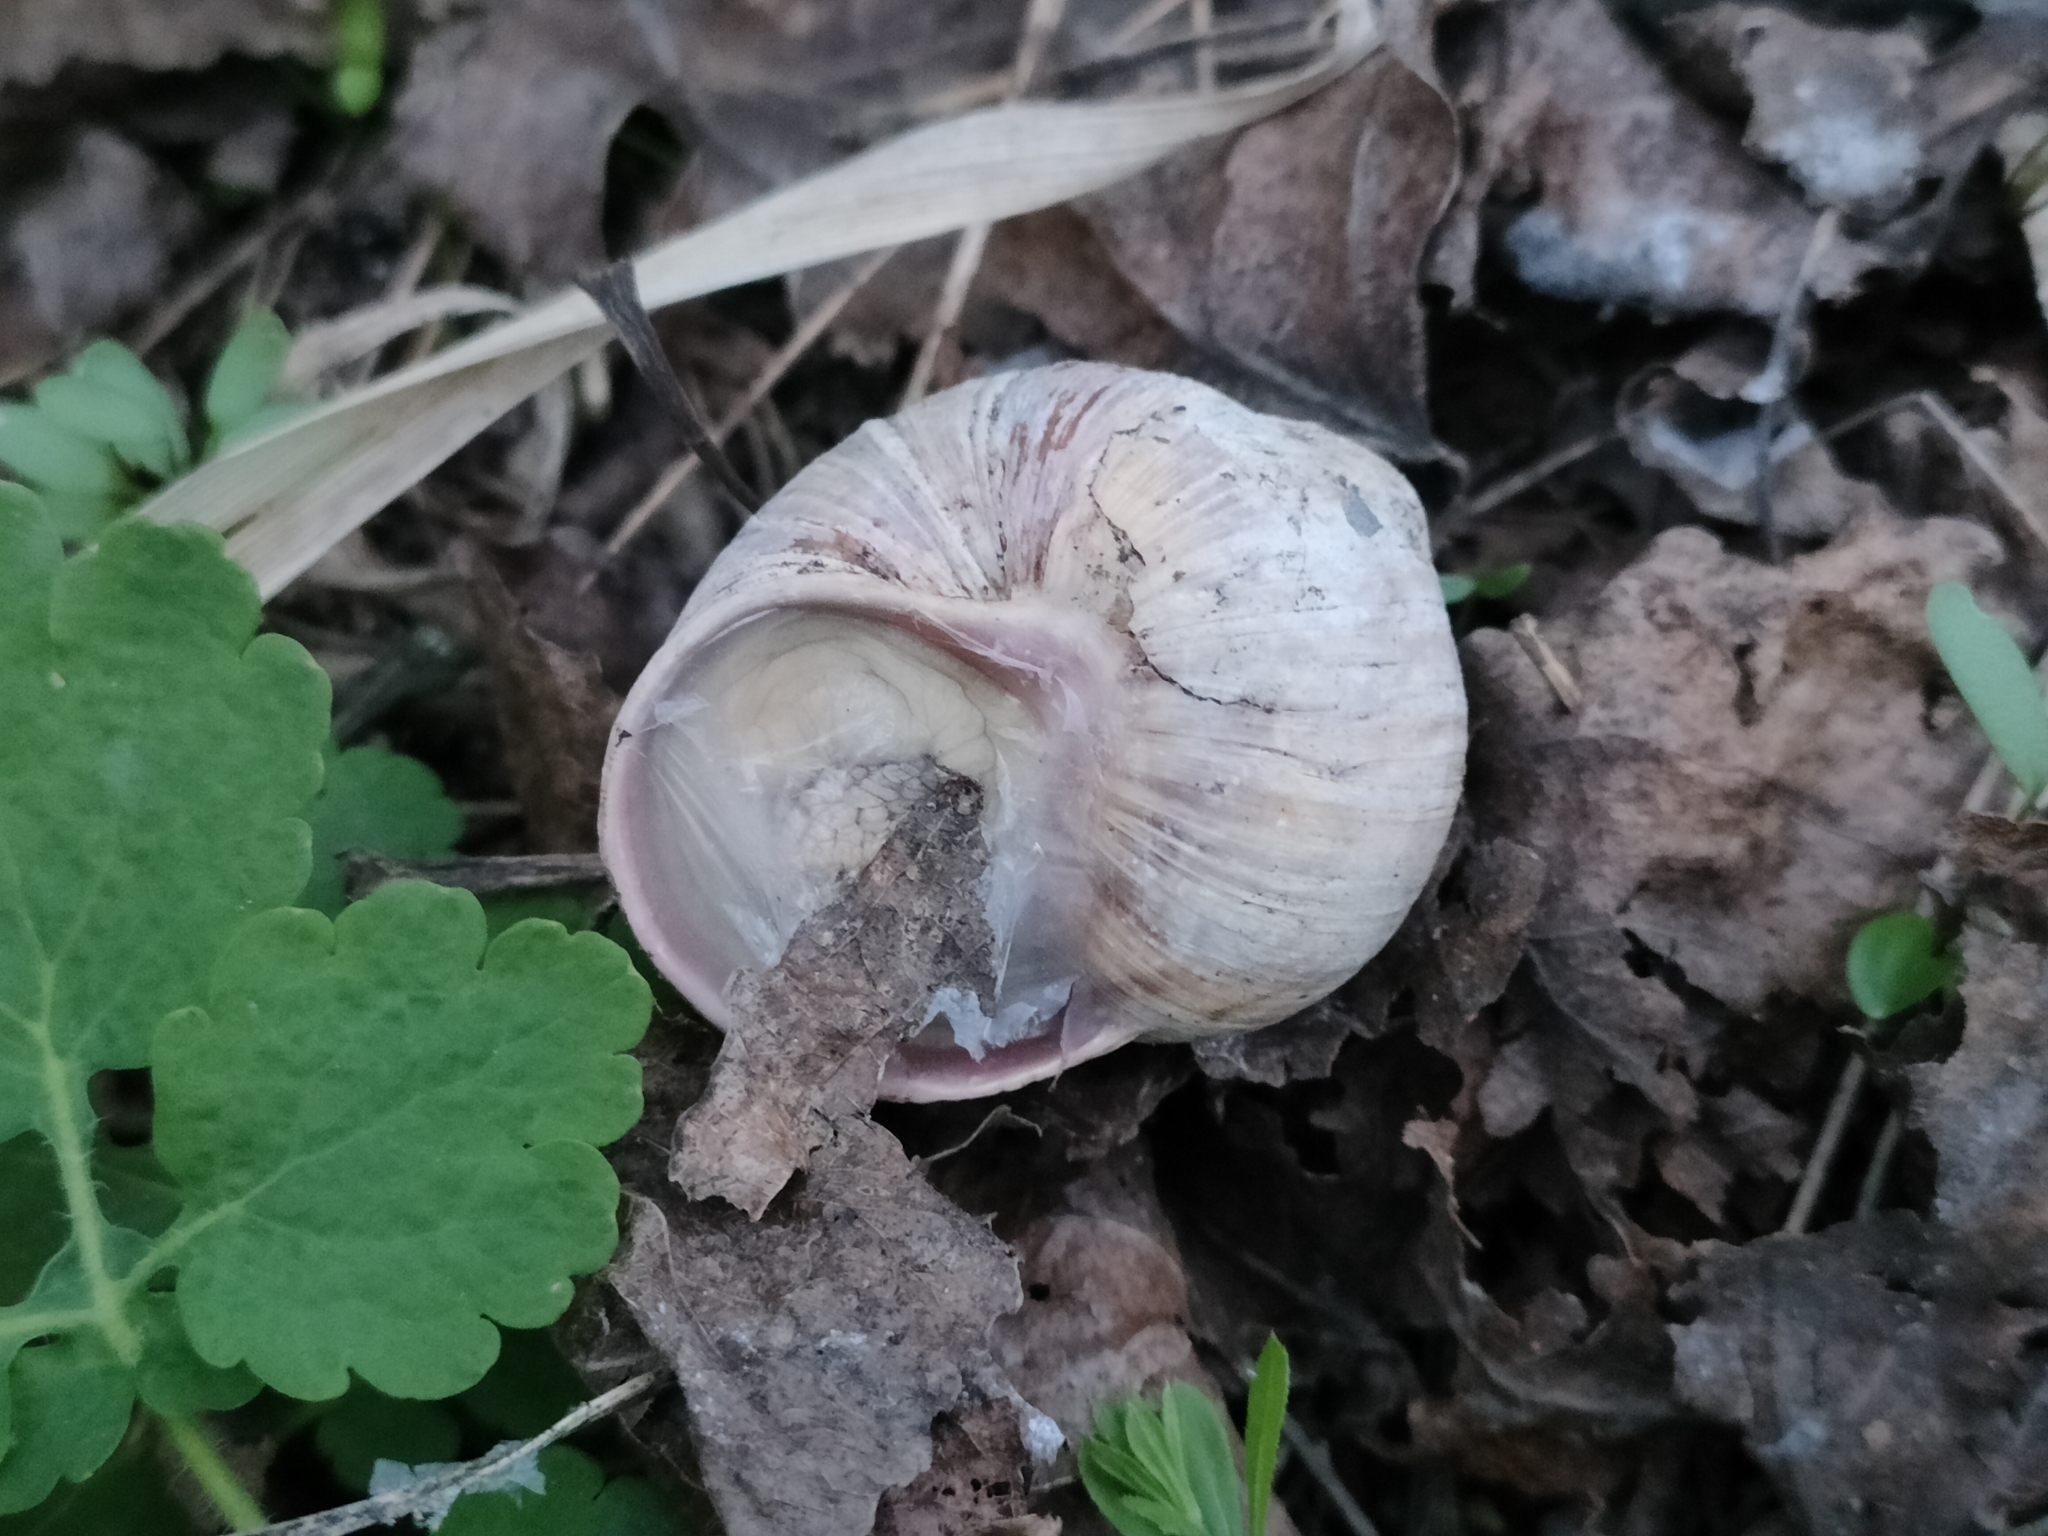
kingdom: Animalia
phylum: Mollusca
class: Gastropoda
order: Stylommatophora
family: Helicidae
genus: Helix
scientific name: Helix pomatia
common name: Roman snail
